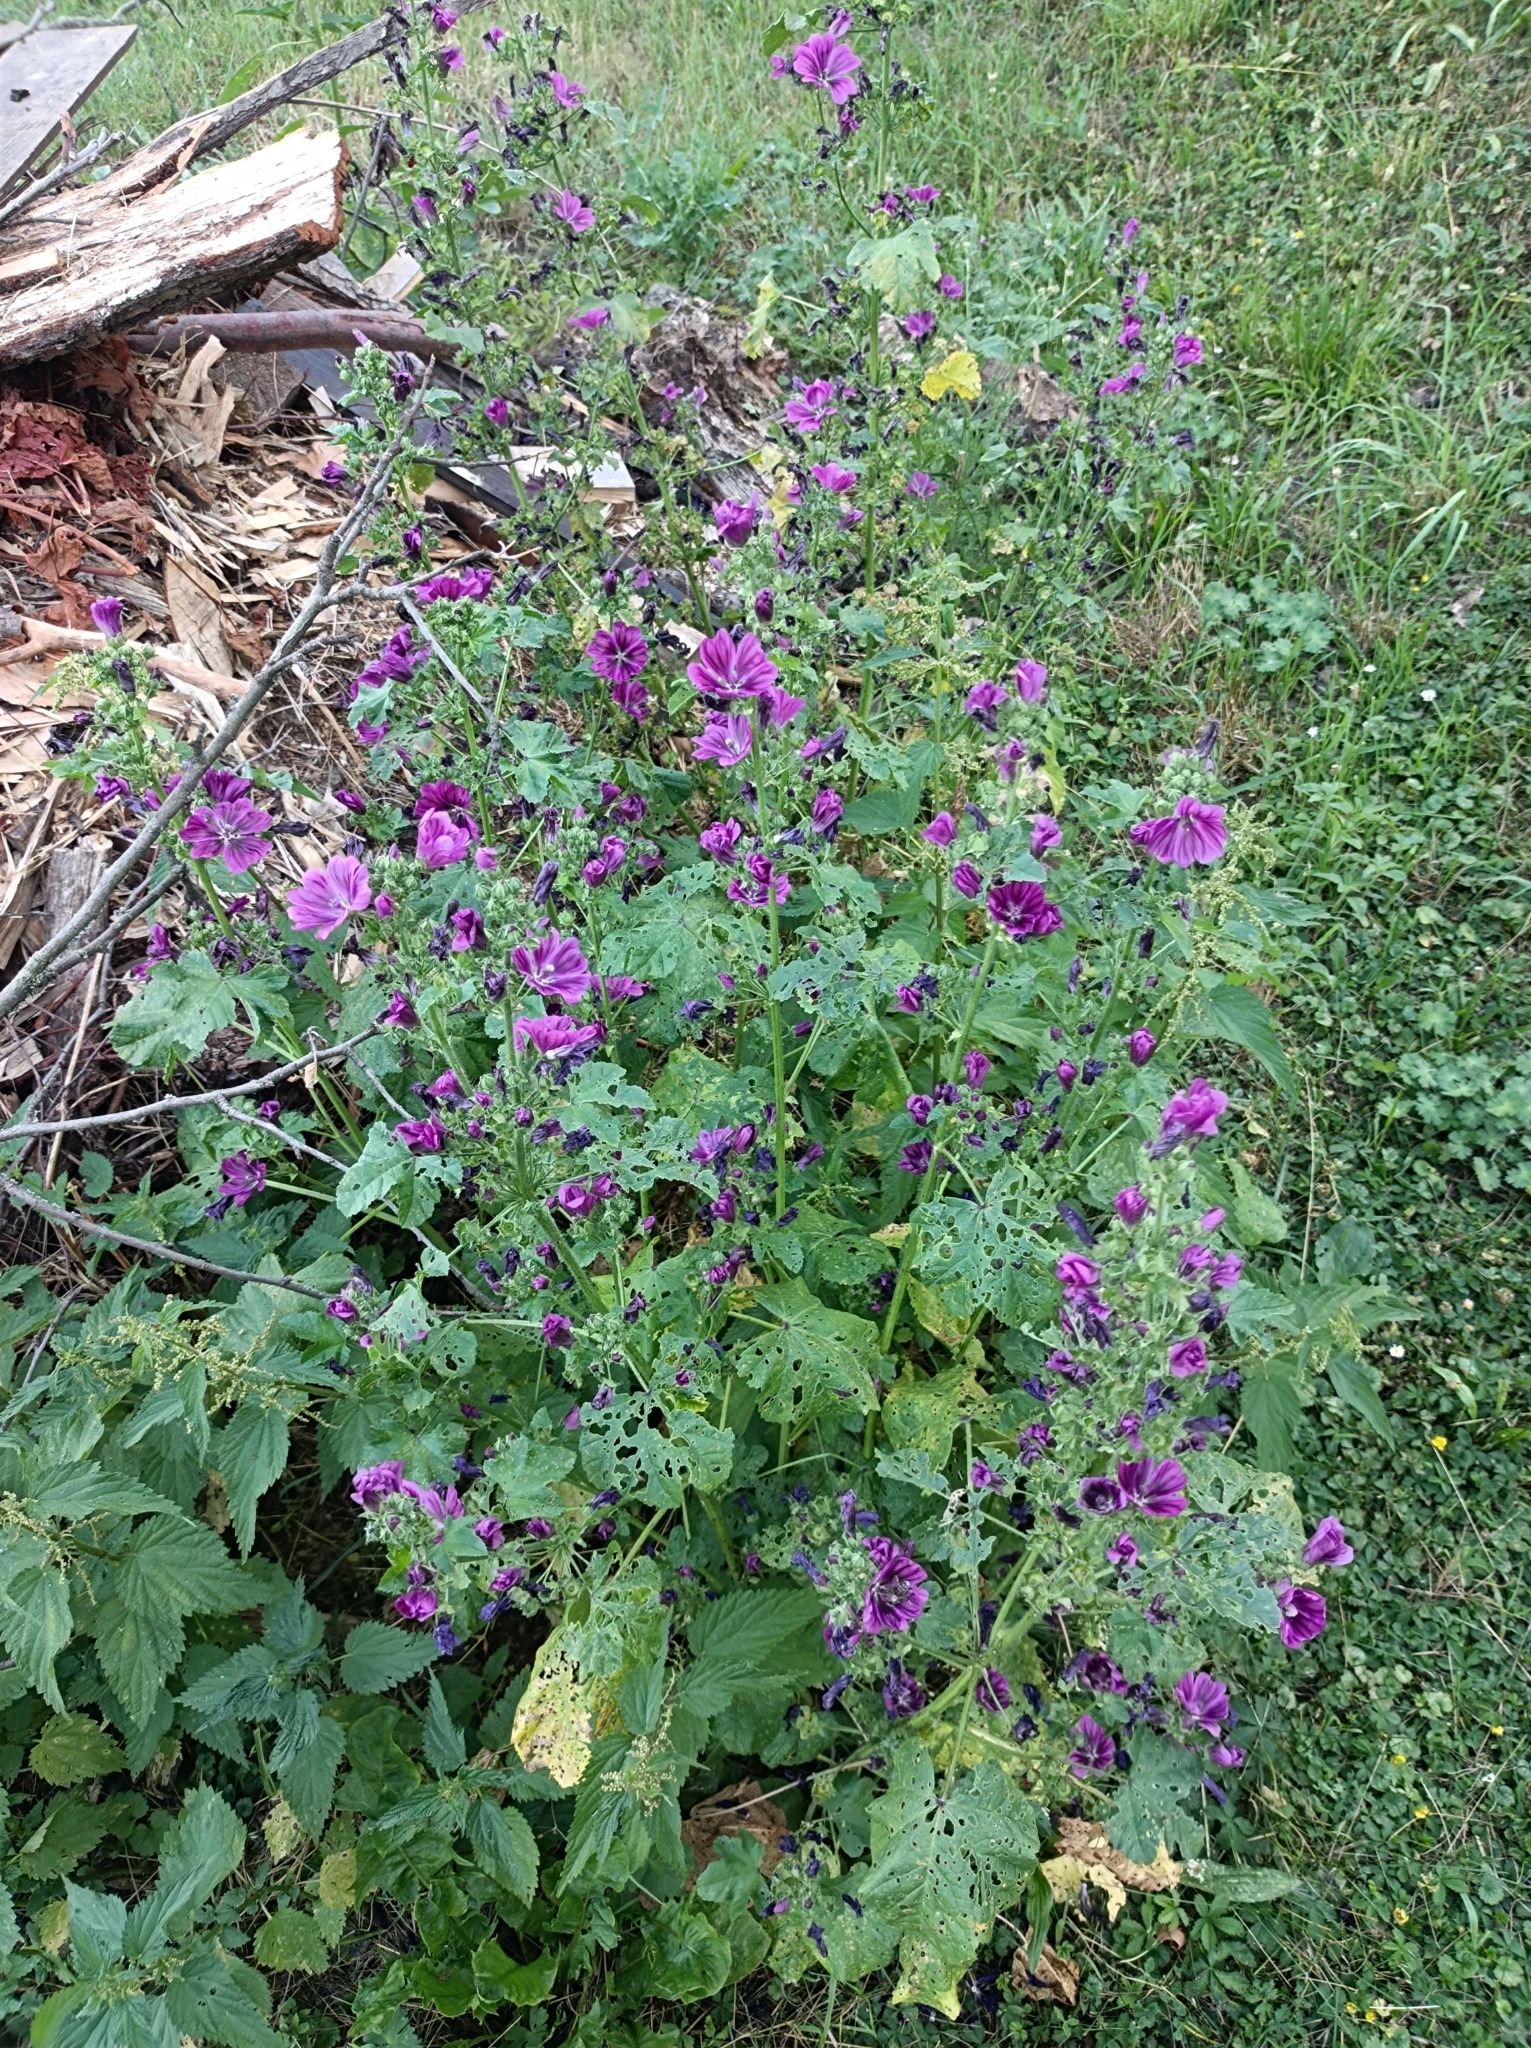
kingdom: Plantae
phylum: Tracheophyta
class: Magnoliopsida
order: Malvales
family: Malvaceae
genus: Malva
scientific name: Malva sylvestris
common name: Common mallow
